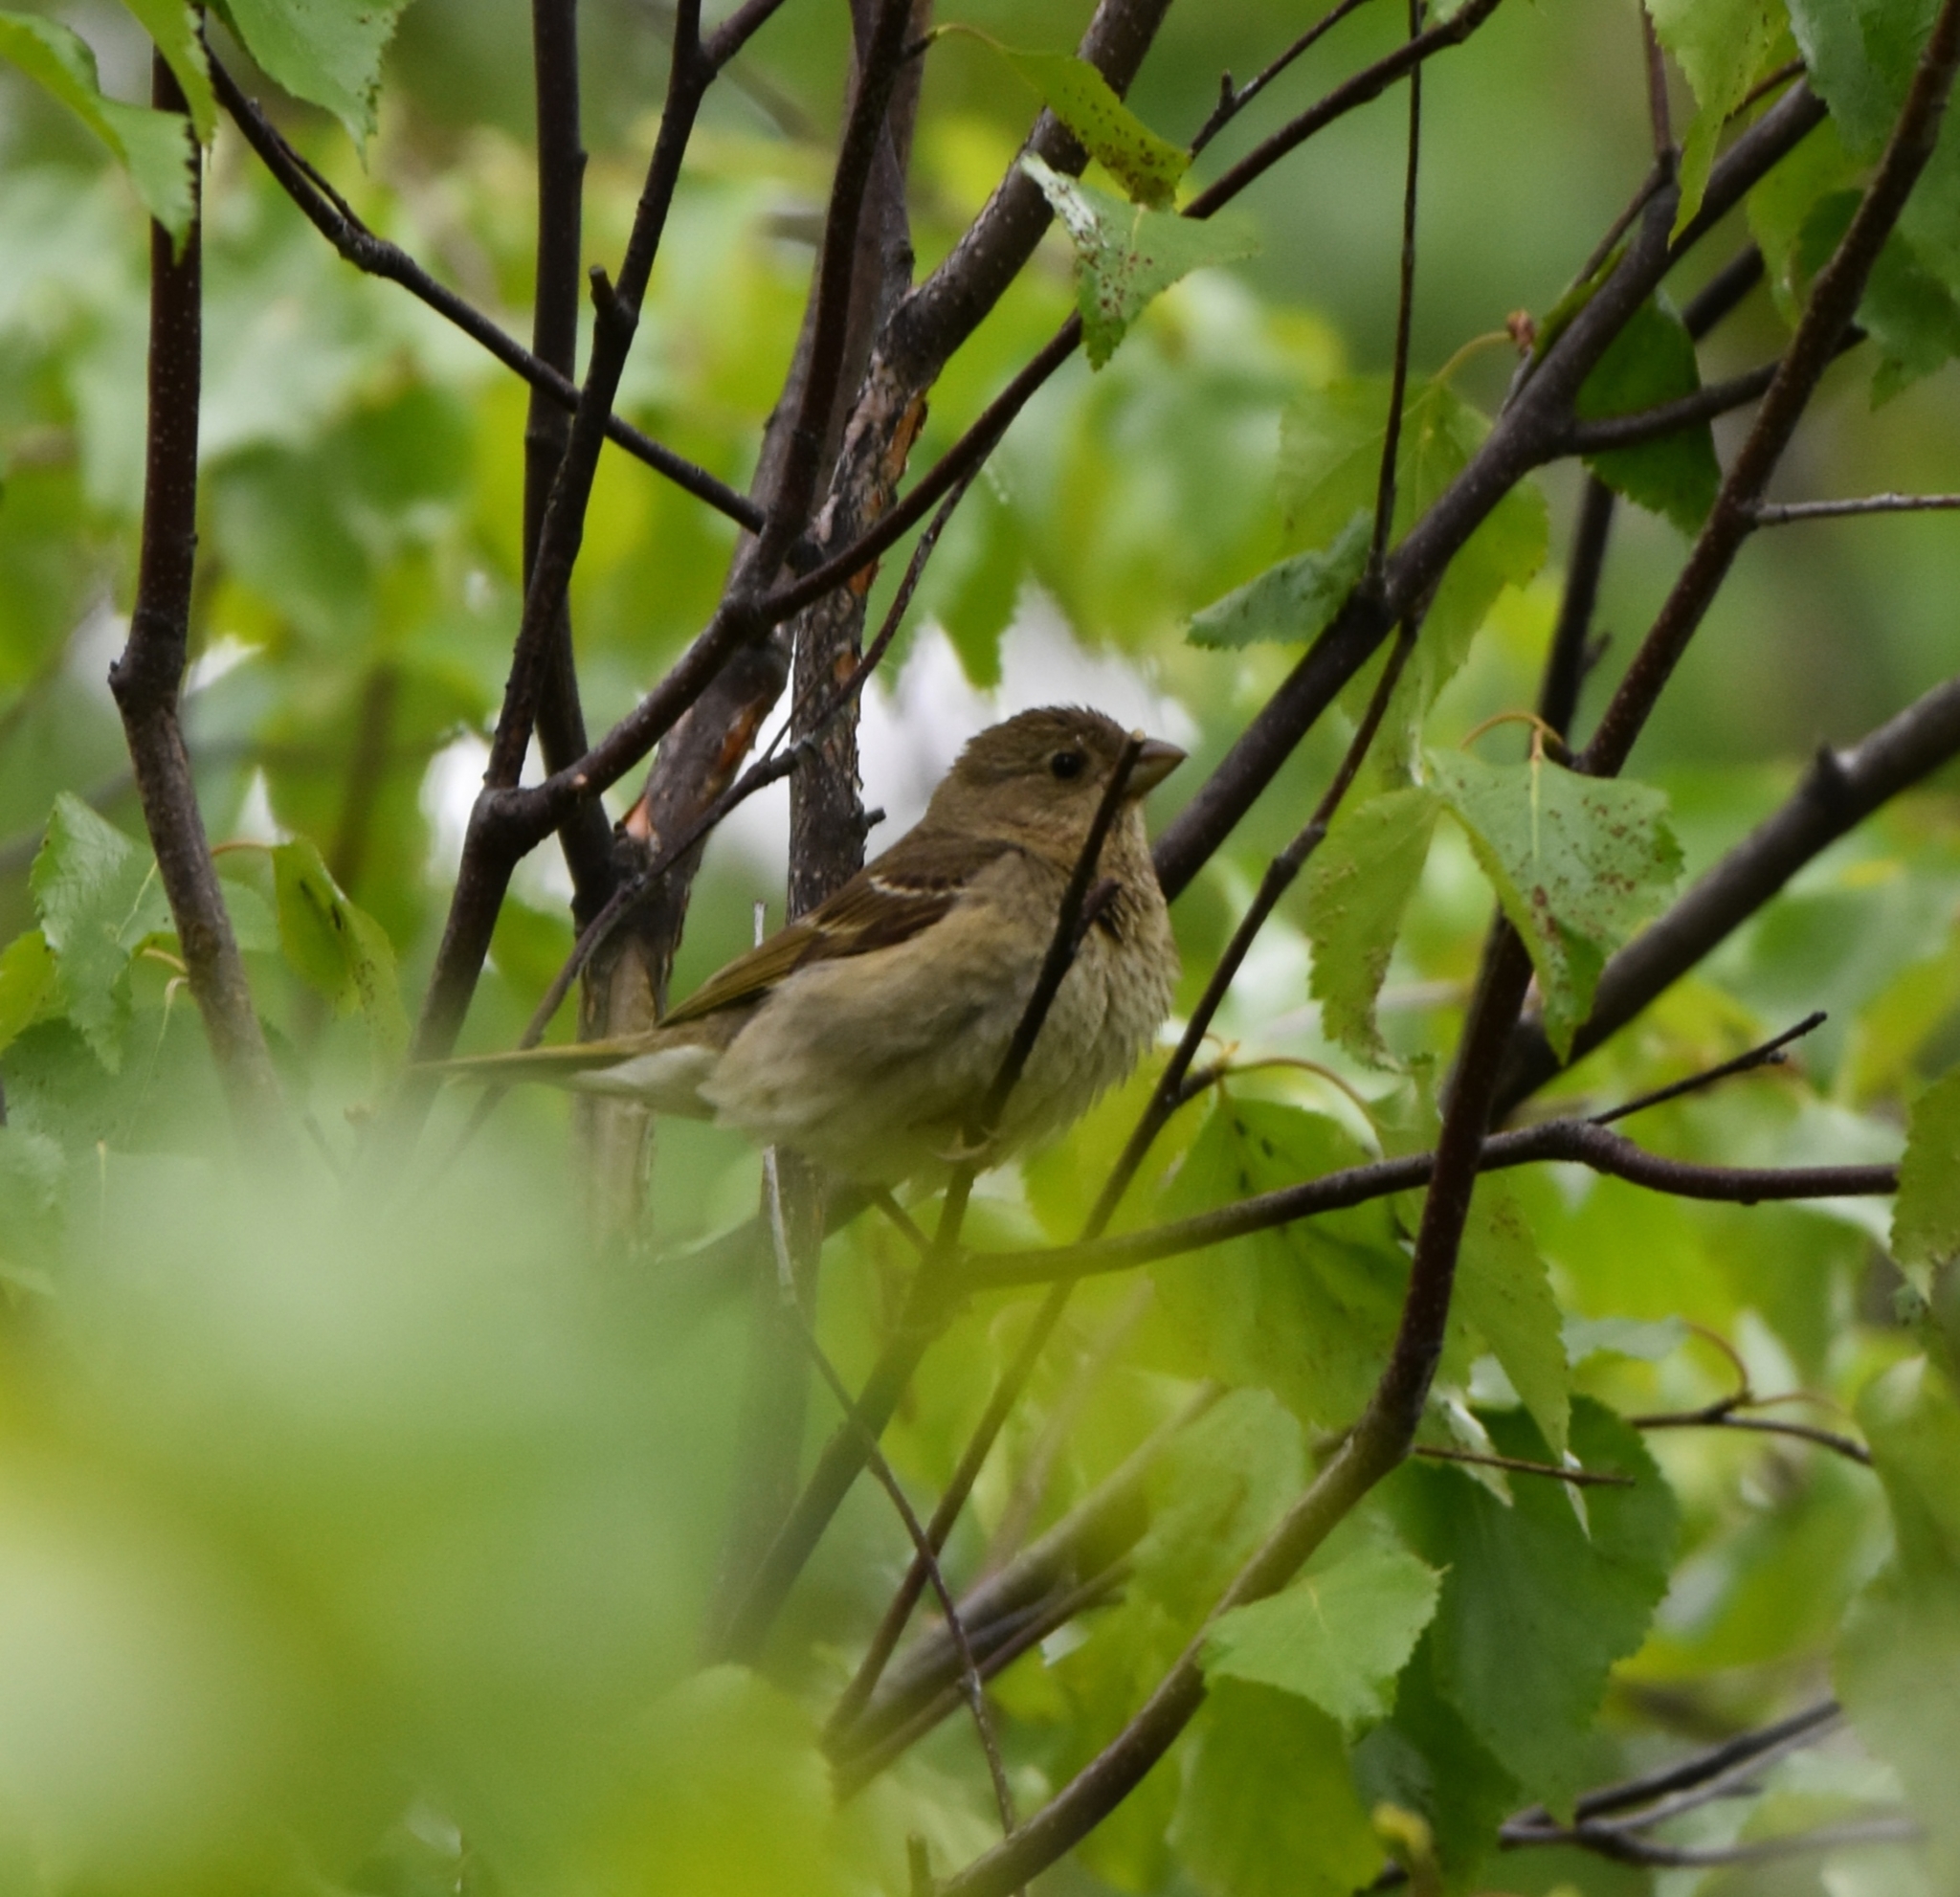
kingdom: Animalia
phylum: Chordata
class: Aves
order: Passeriformes
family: Fringillidae
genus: Carpodacus
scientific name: Carpodacus erythrinus
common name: Common rosefinch
